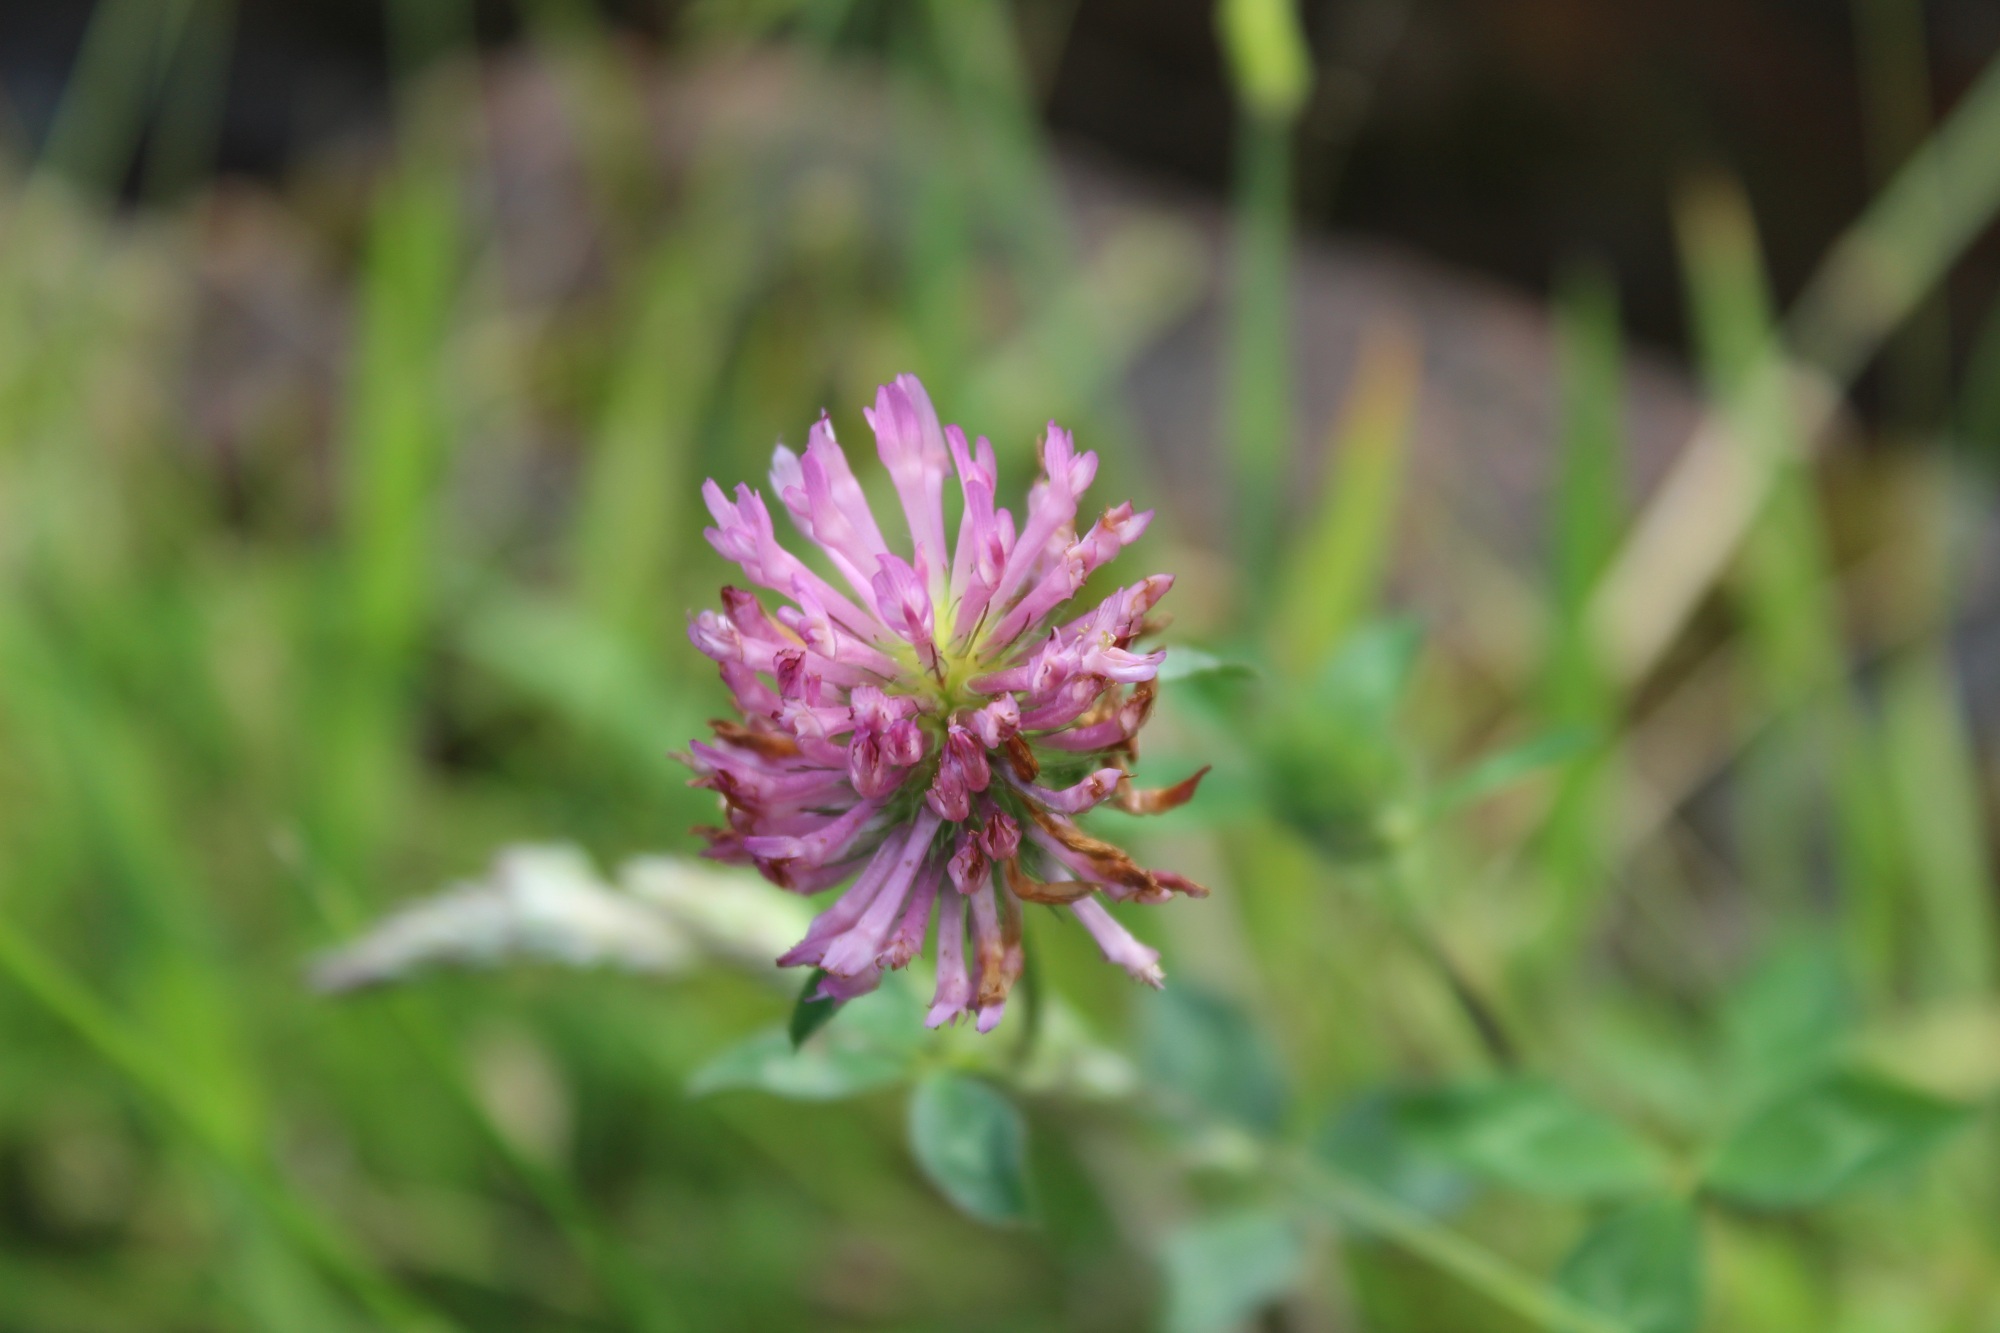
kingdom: Plantae
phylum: Tracheophyta
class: Magnoliopsida
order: Fabales
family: Fabaceae
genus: Trifolium
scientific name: Trifolium pratense
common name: Red clover
